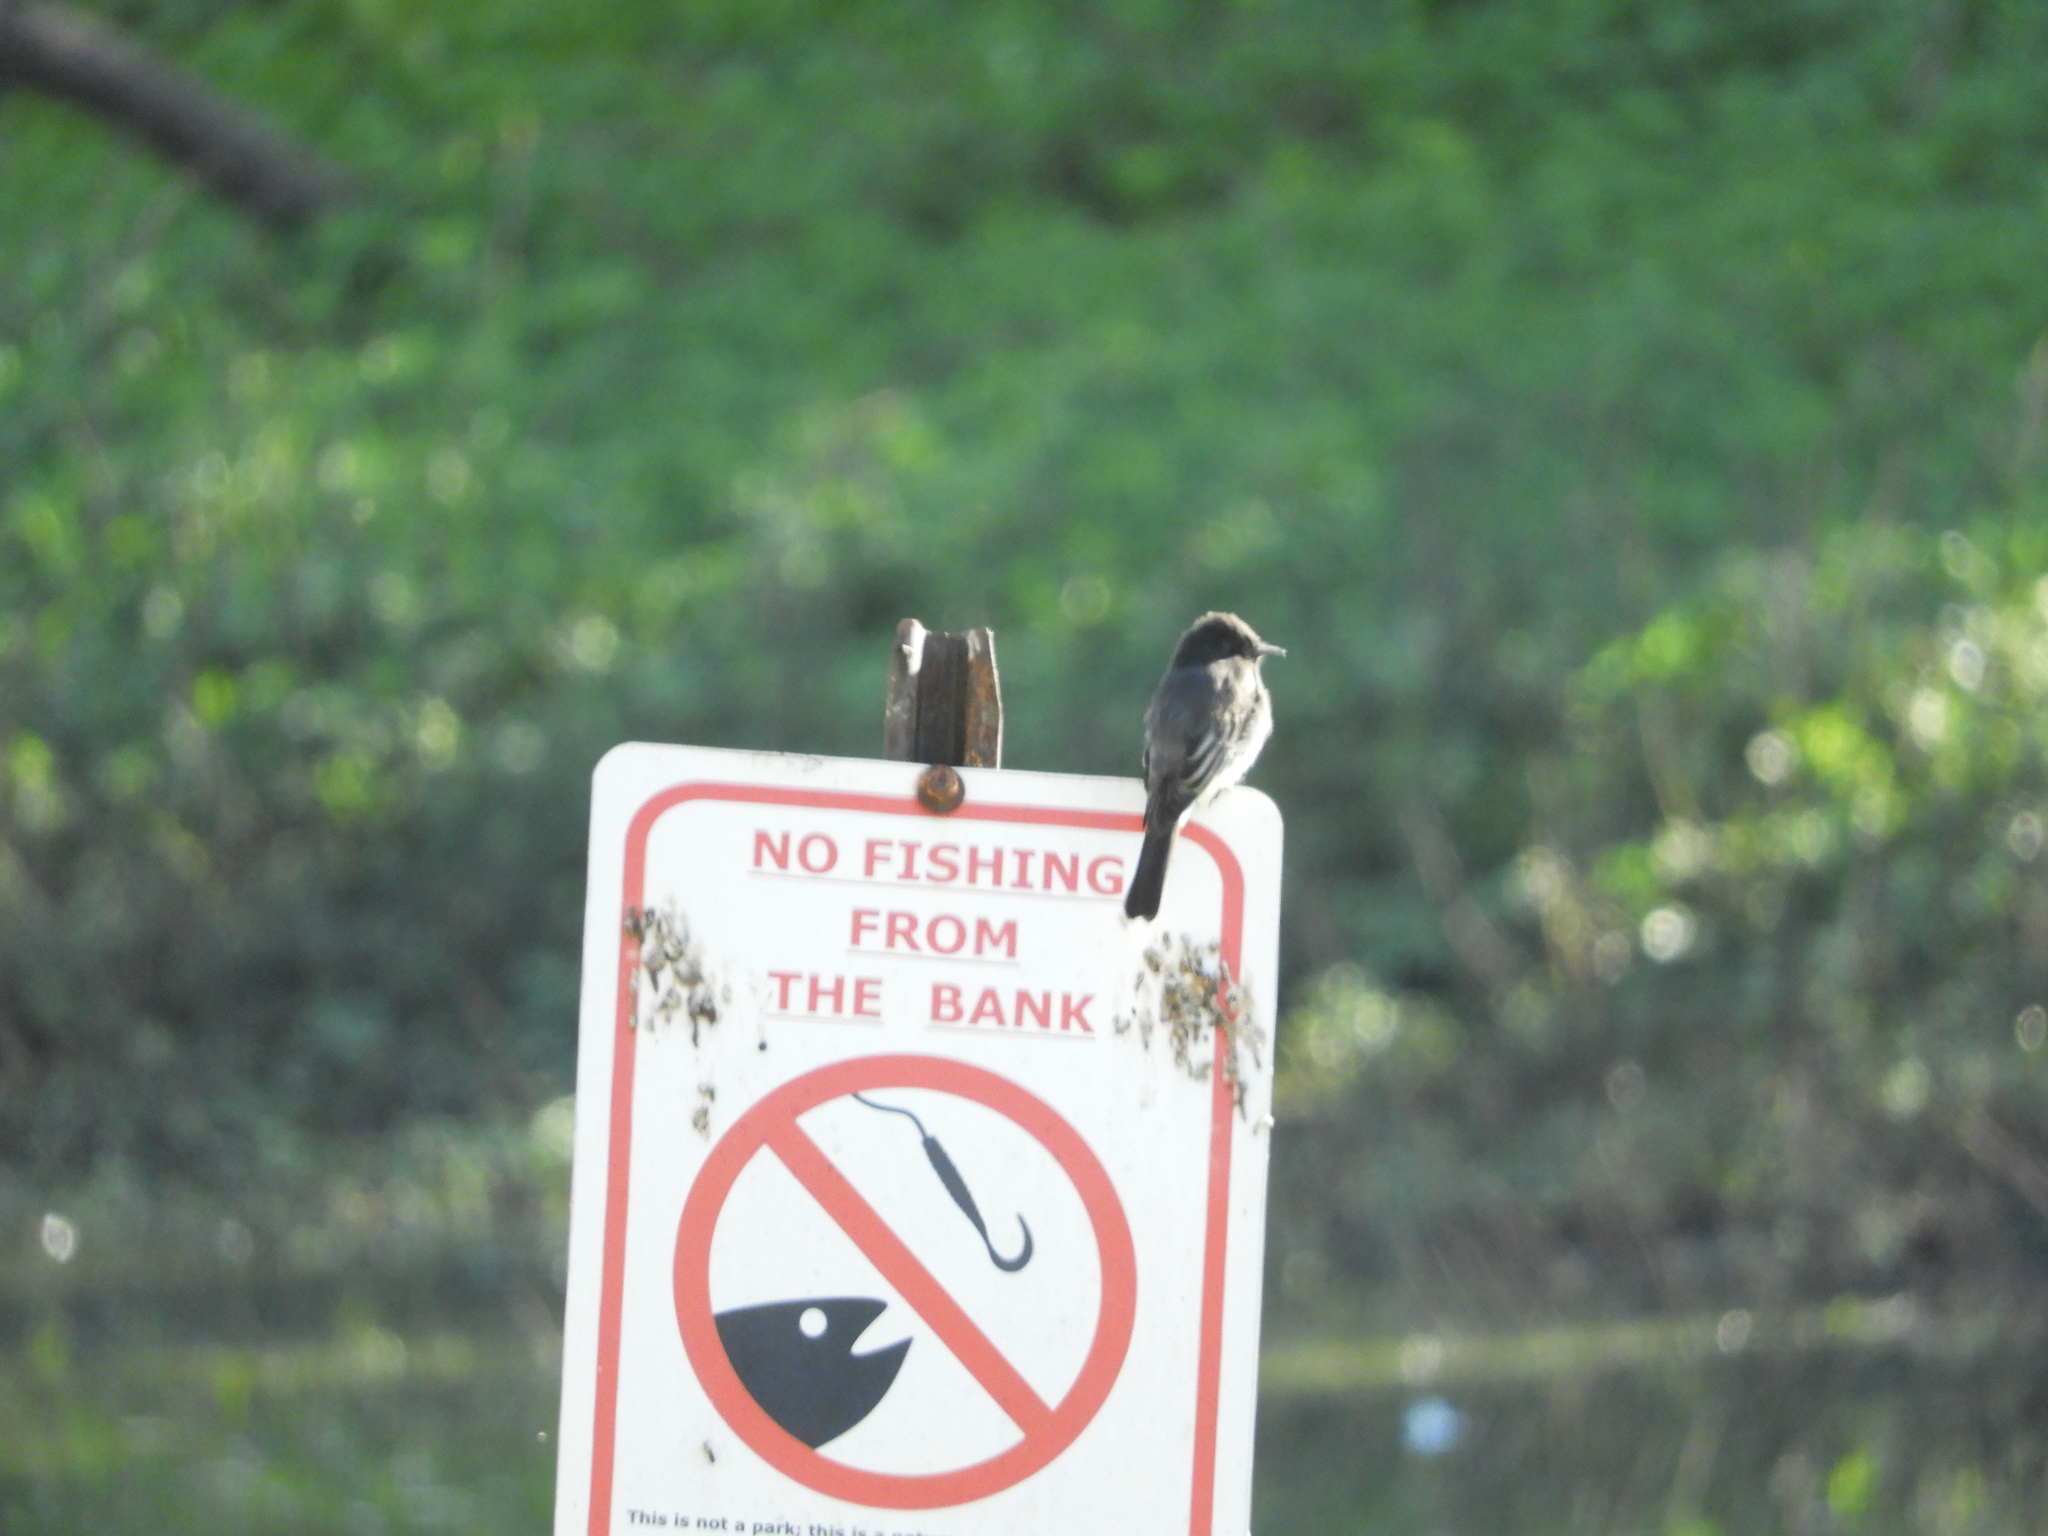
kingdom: Animalia
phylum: Chordata
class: Aves
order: Passeriformes
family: Tyrannidae
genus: Sayornis
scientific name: Sayornis nigricans
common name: Black phoebe
